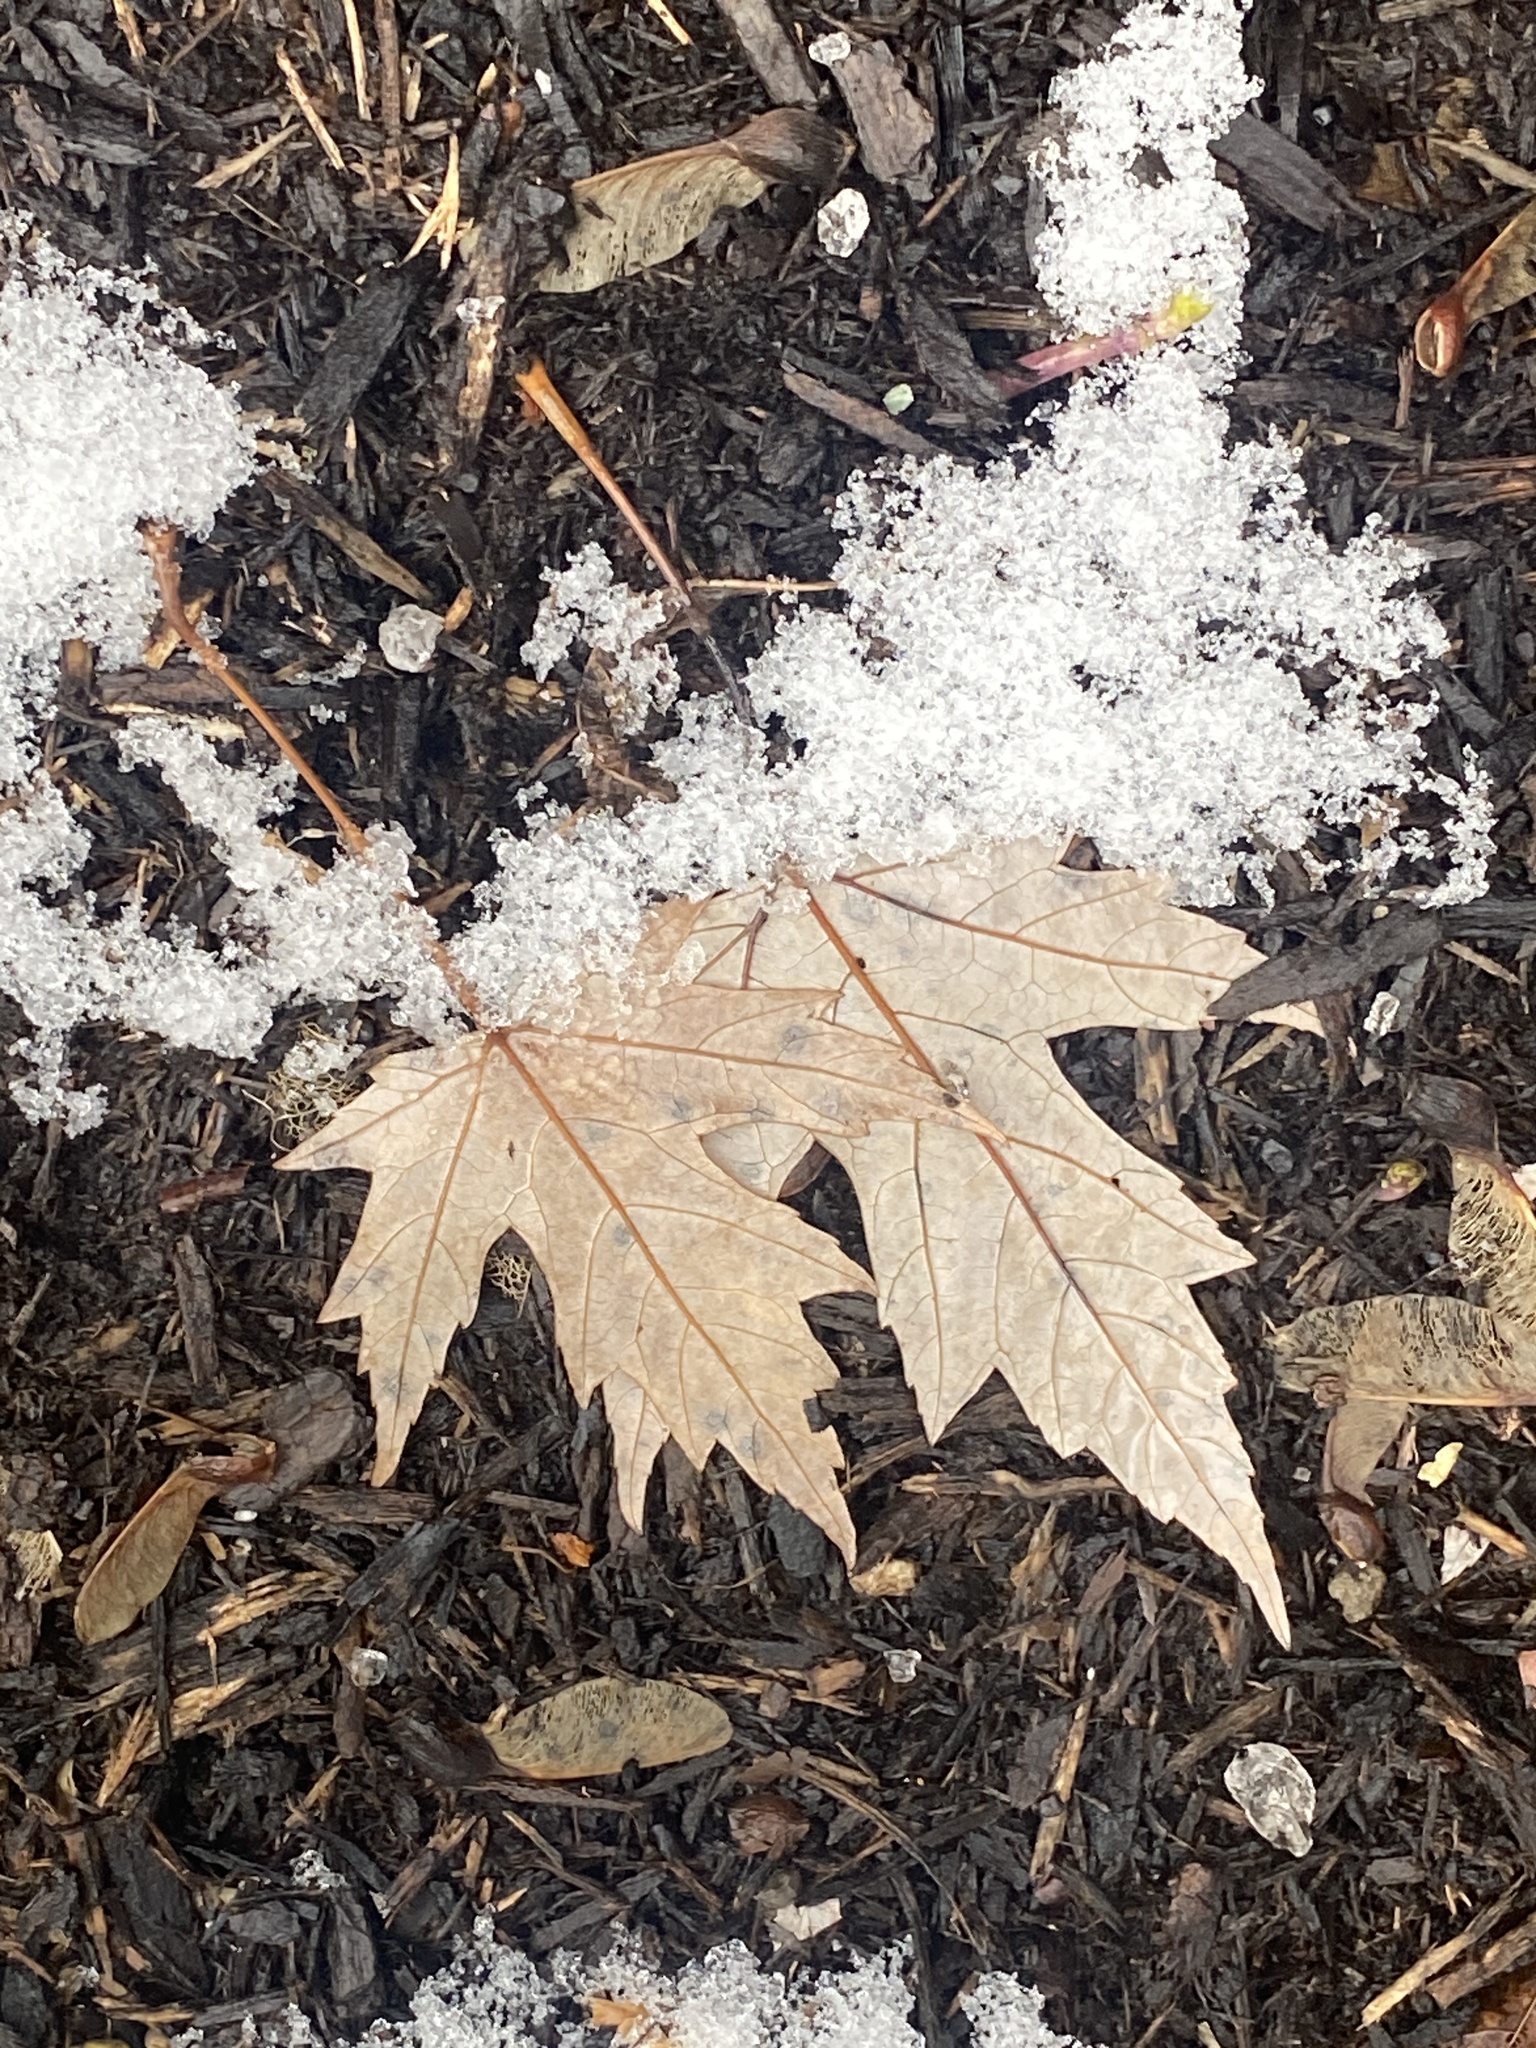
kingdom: Plantae
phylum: Tracheophyta
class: Magnoliopsida
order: Sapindales
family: Sapindaceae
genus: Acer
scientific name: Acer saccharinum
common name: Silver maple
